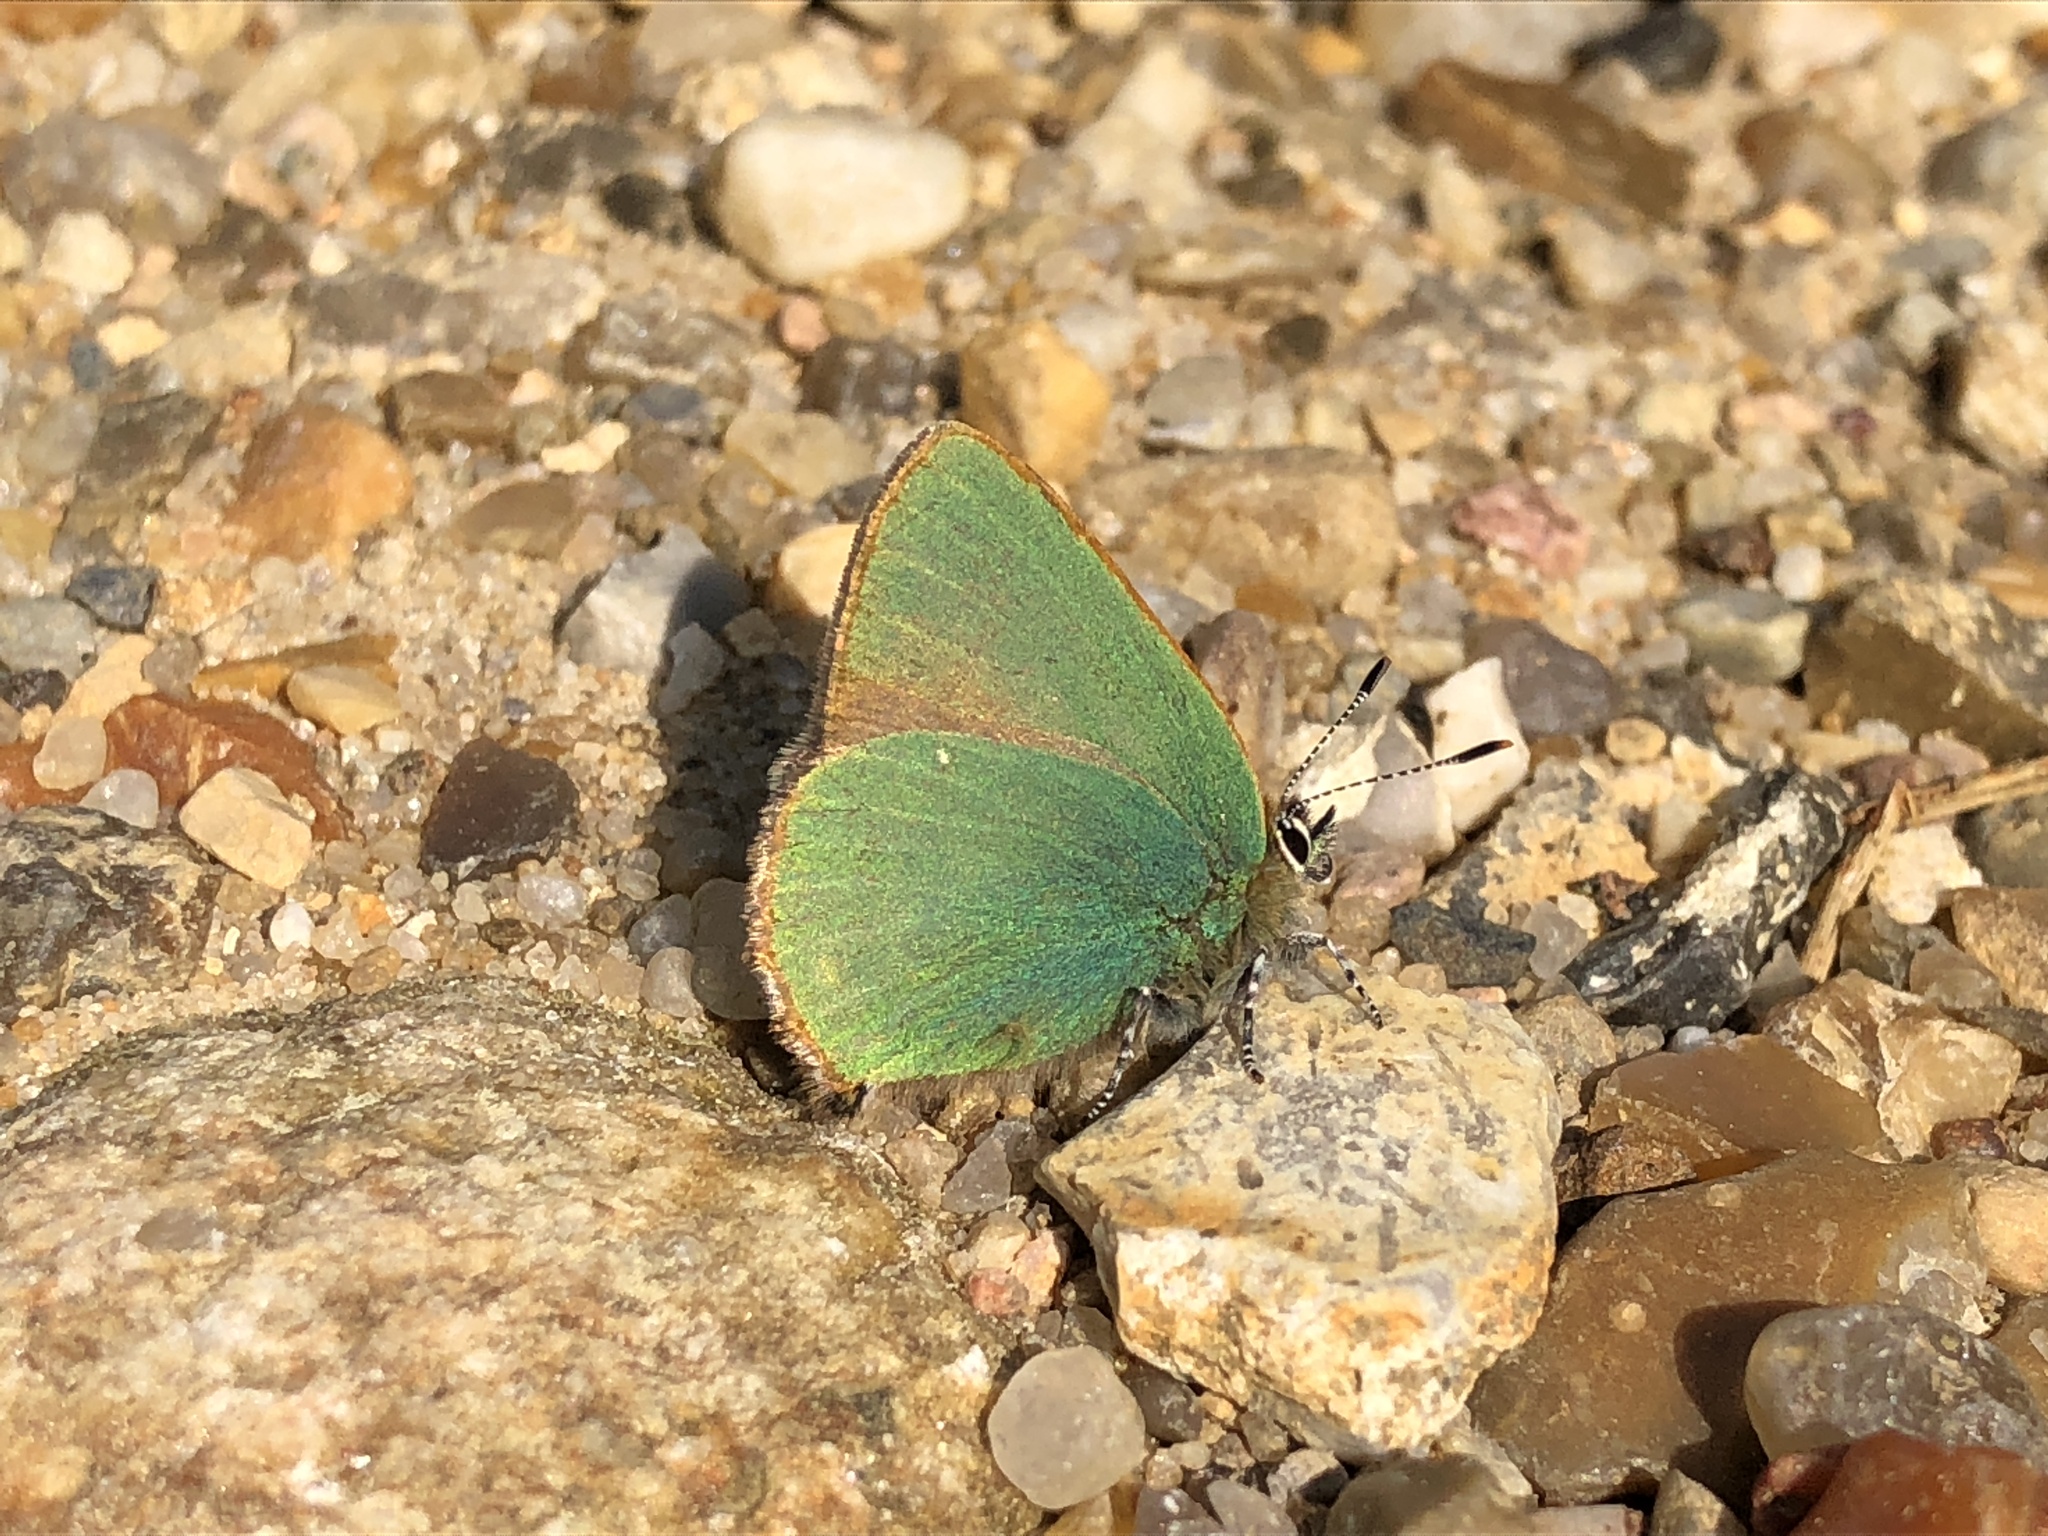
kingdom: Animalia
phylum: Arthropoda
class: Insecta
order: Lepidoptera
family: Lycaenidae
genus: Callophrys
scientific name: Callophrys rubi
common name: Green hairstreak
